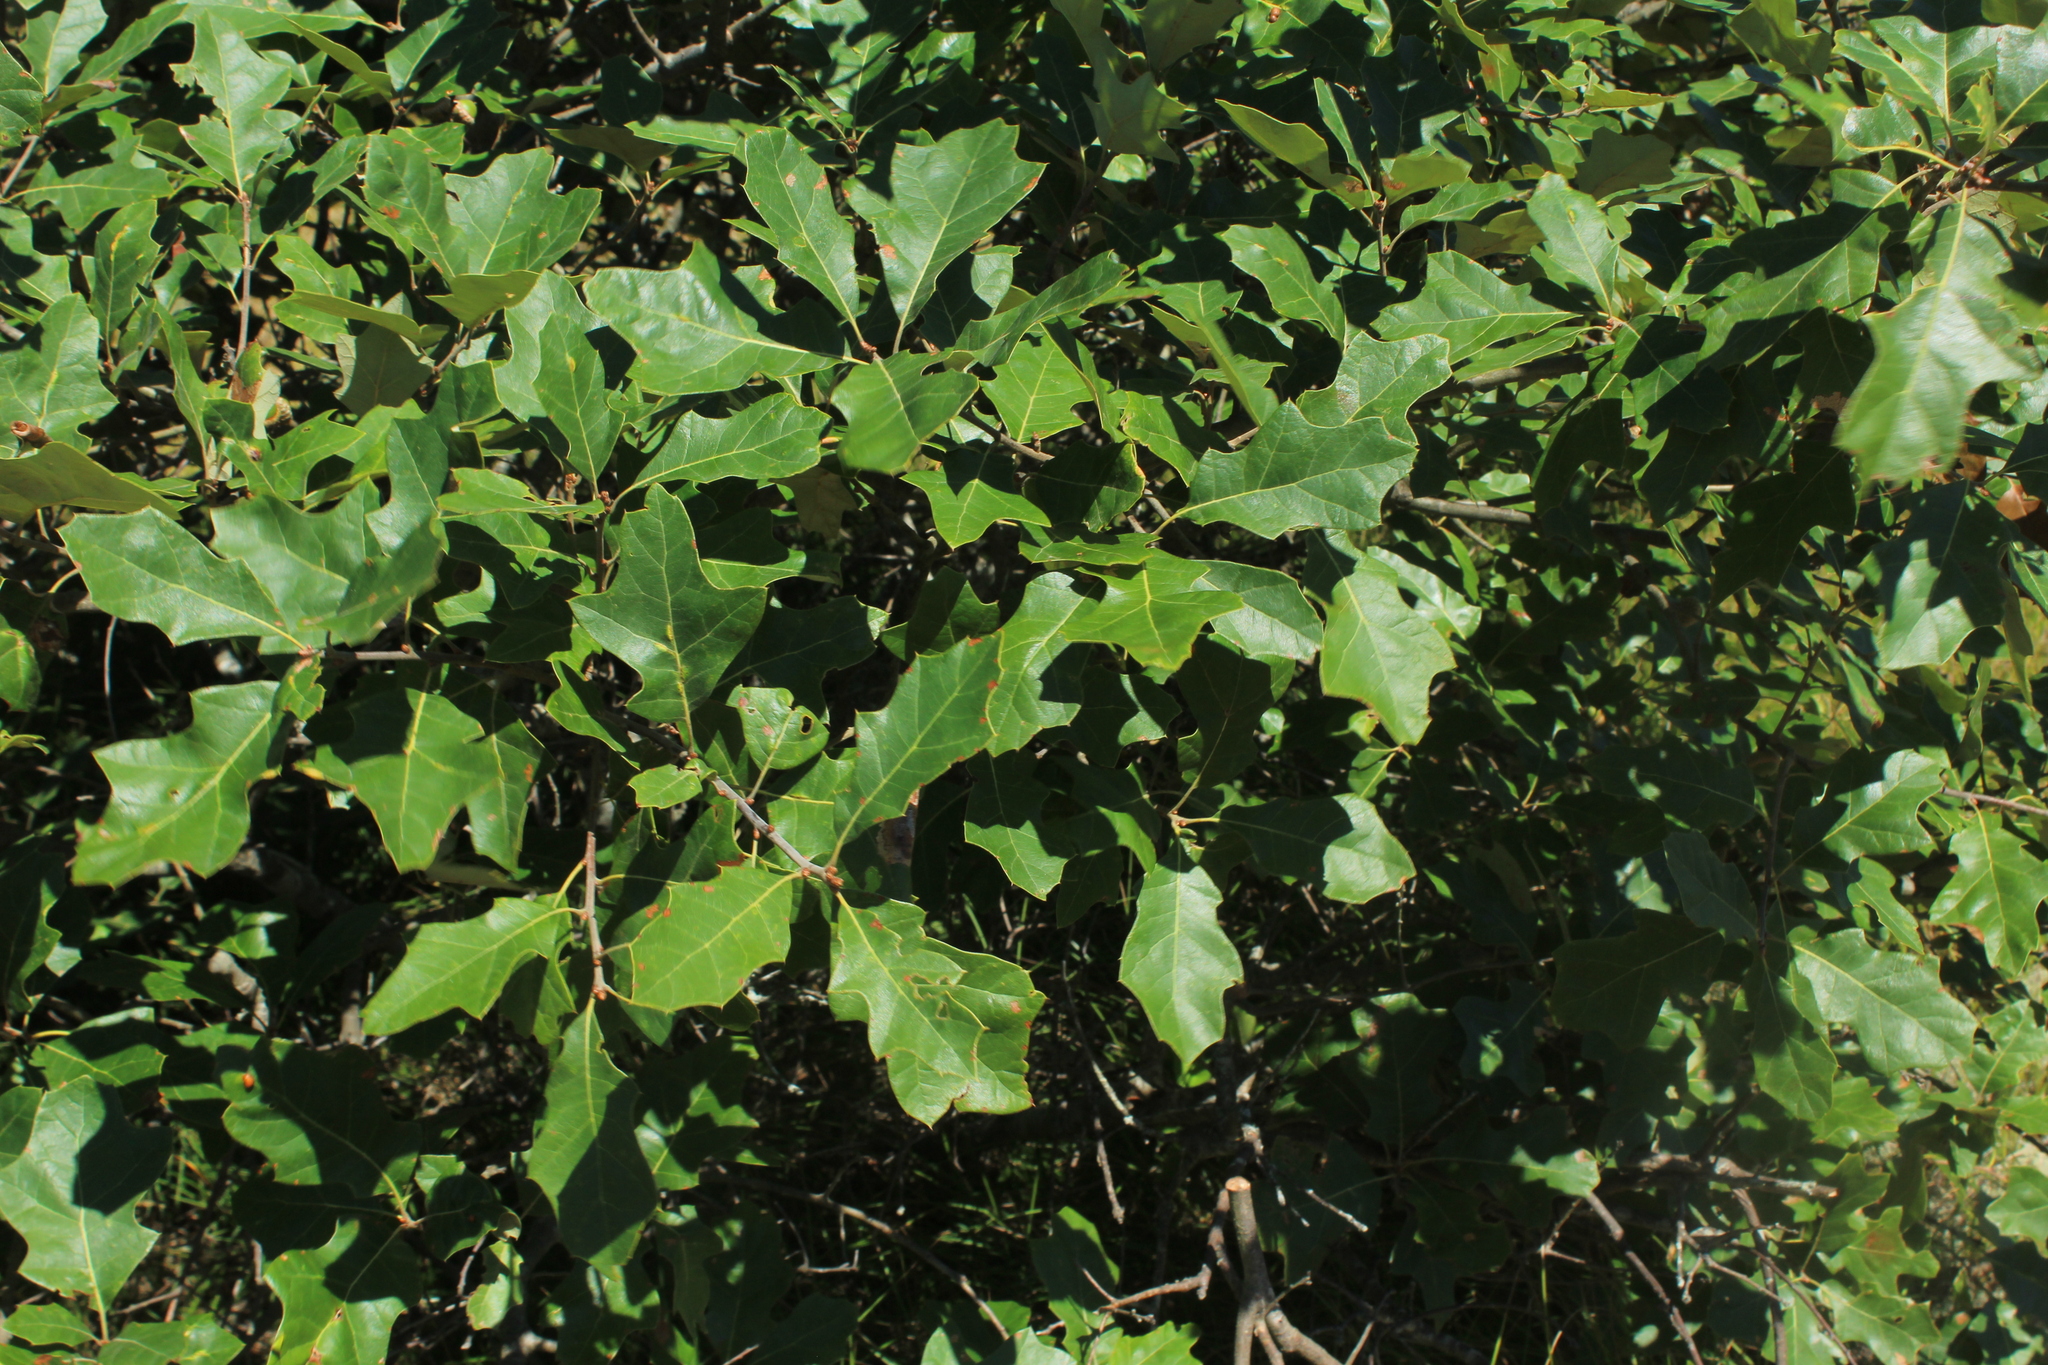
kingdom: Plantae
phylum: Tracheophyta
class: Magnoliopsida
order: Fagales
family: Fagaceae
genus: Quercus
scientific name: Quercus ilicifolia
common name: Bear oak
